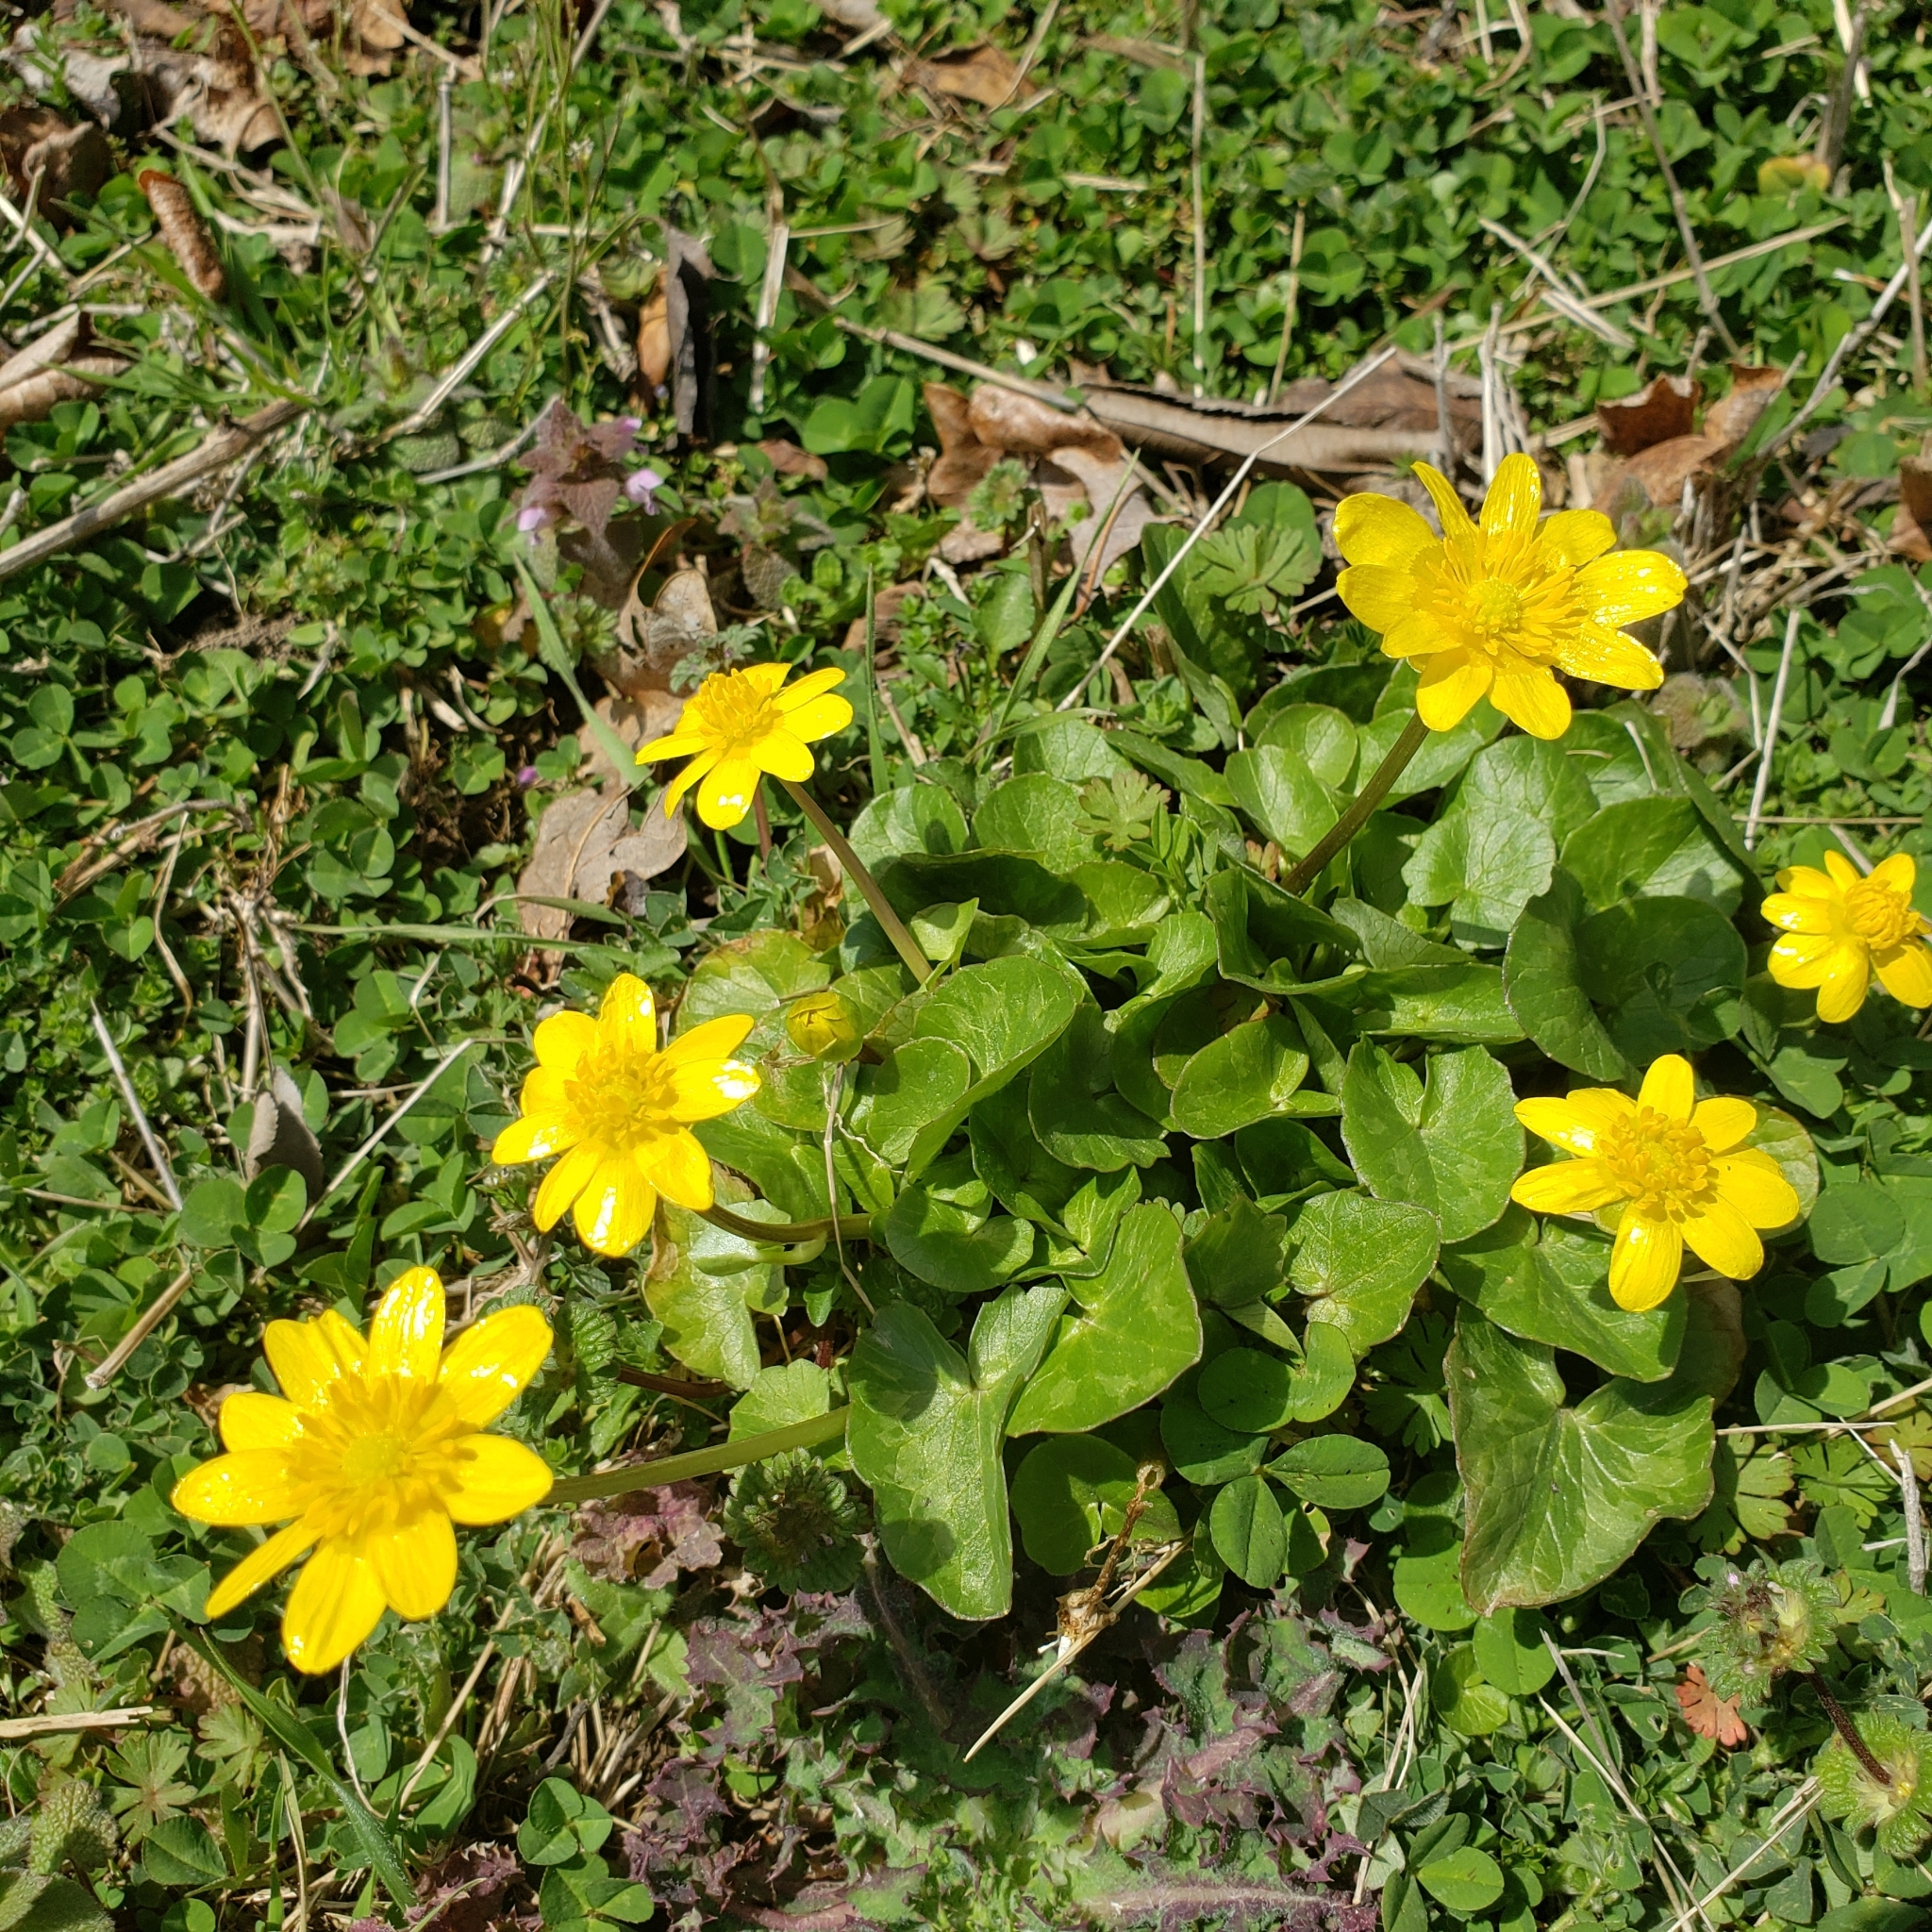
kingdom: Plantae
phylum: Tracheophyta
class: Magnoliopsida
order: Ranunculales
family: Ranunculaceae
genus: Ficaria
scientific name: Ficaria verna
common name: Lesser celandine
